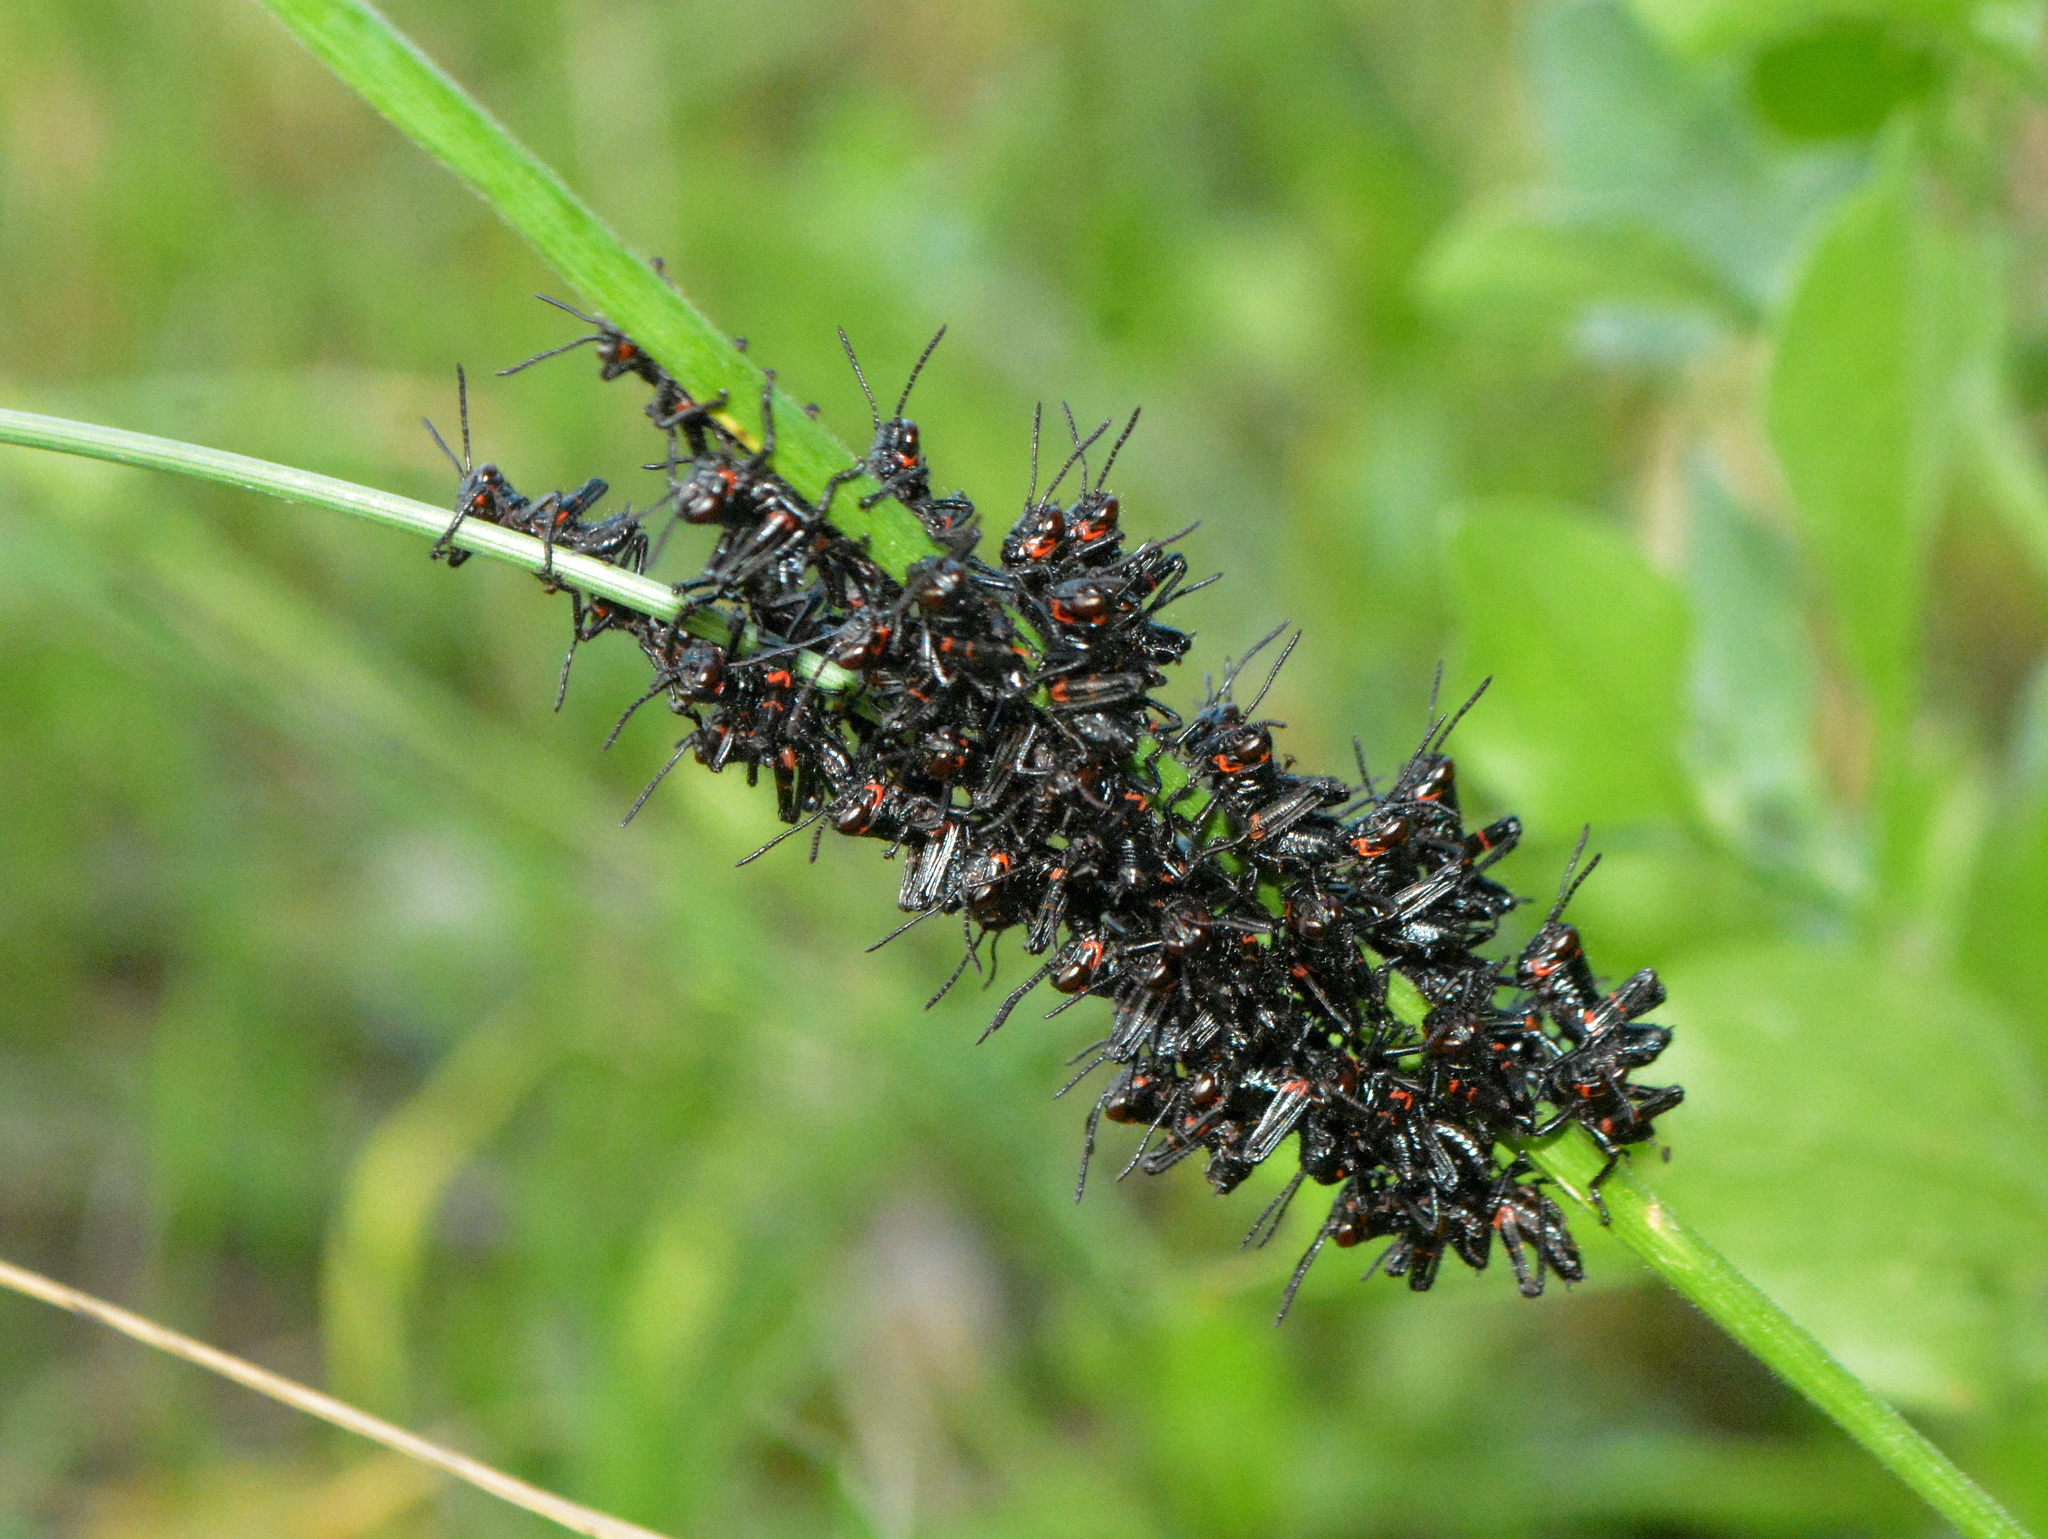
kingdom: Animalia
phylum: Arthropoda
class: Insecta
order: Orthoptera
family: Romaleidae
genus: Chromacris
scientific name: Chromacris speciosa
